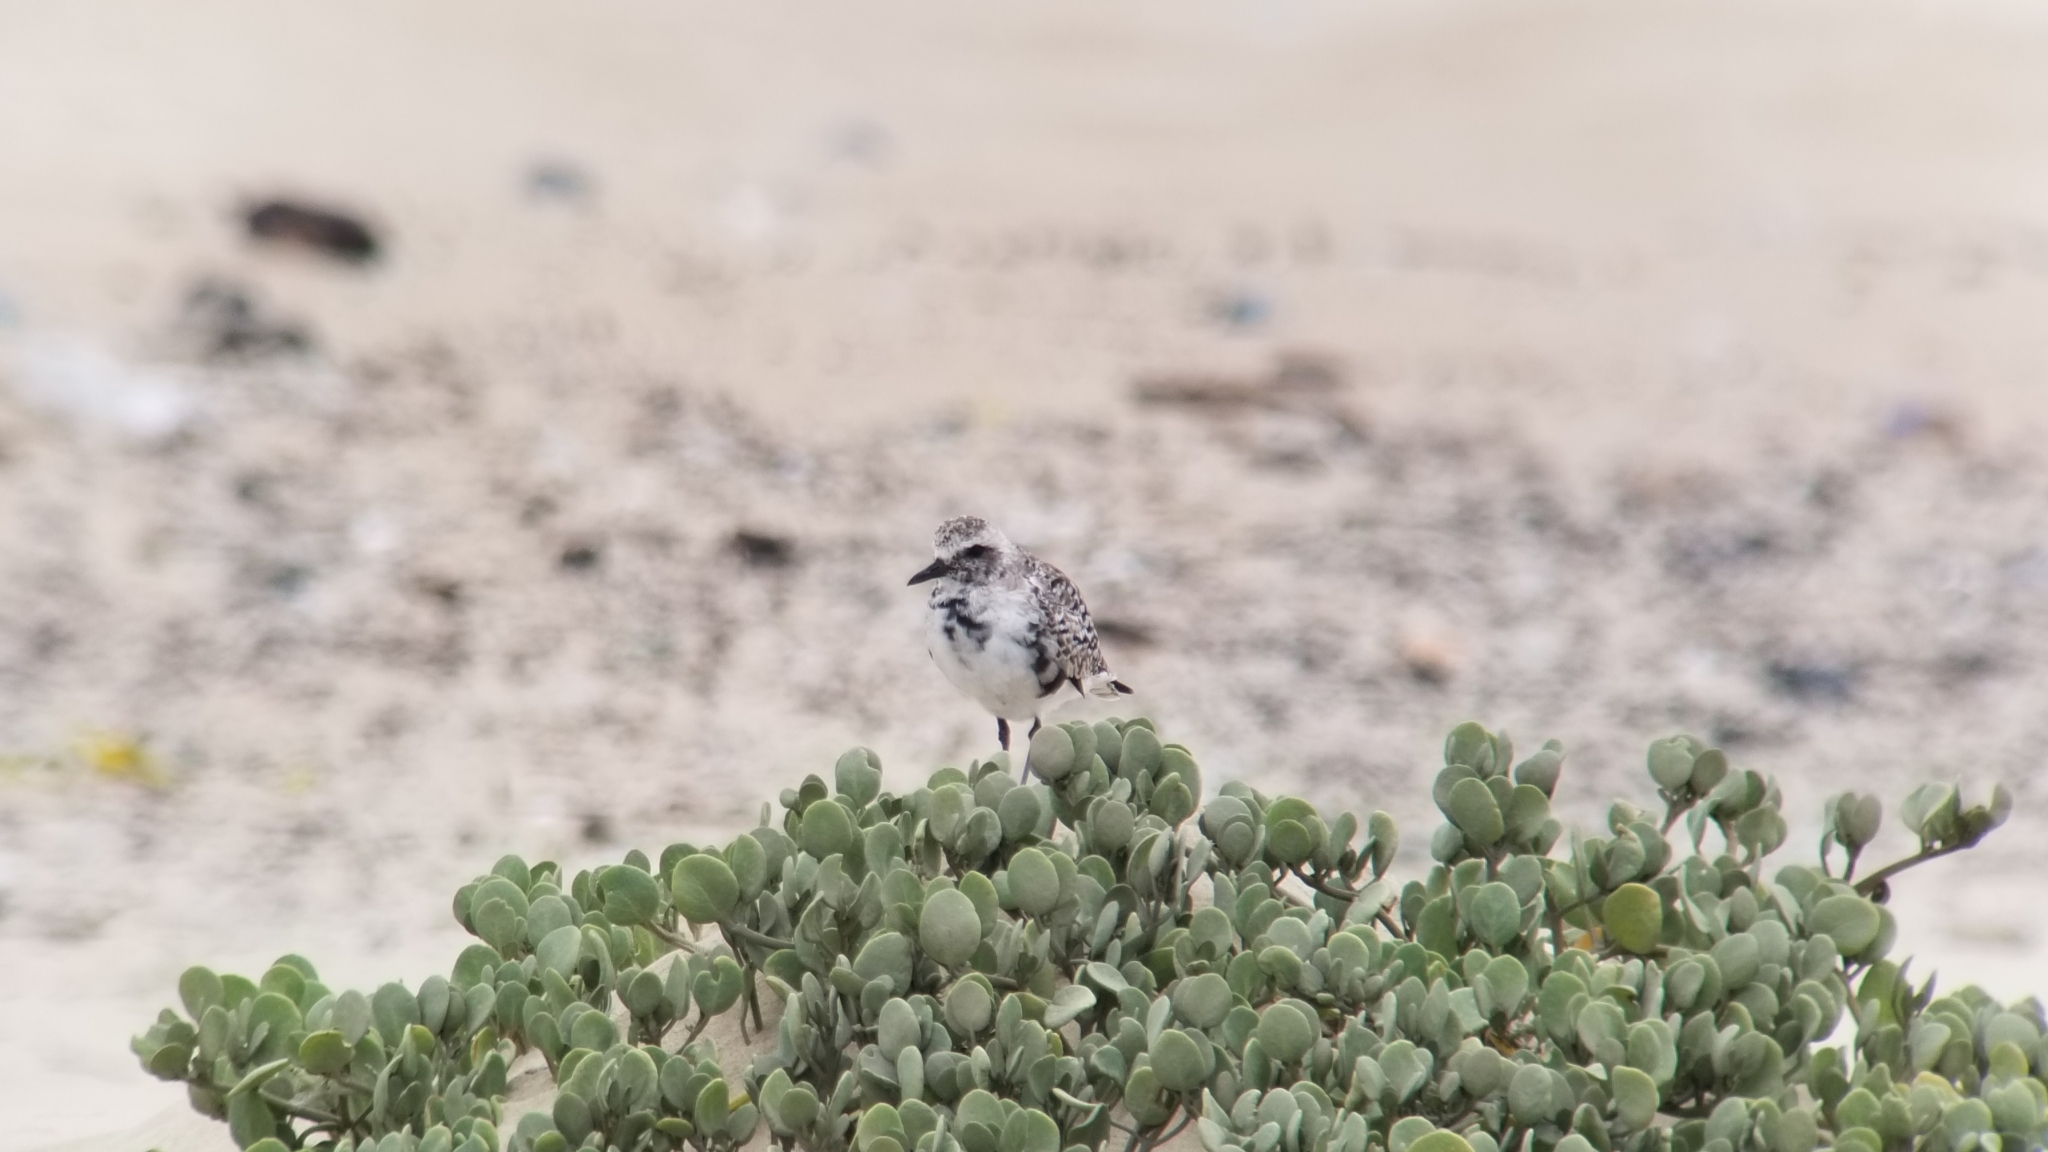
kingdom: Animalia
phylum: Chordata
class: Aves
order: Charadriiformes
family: Charadriidae
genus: Pluvialis
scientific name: Pluvialis squatarola
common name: Grey plover
